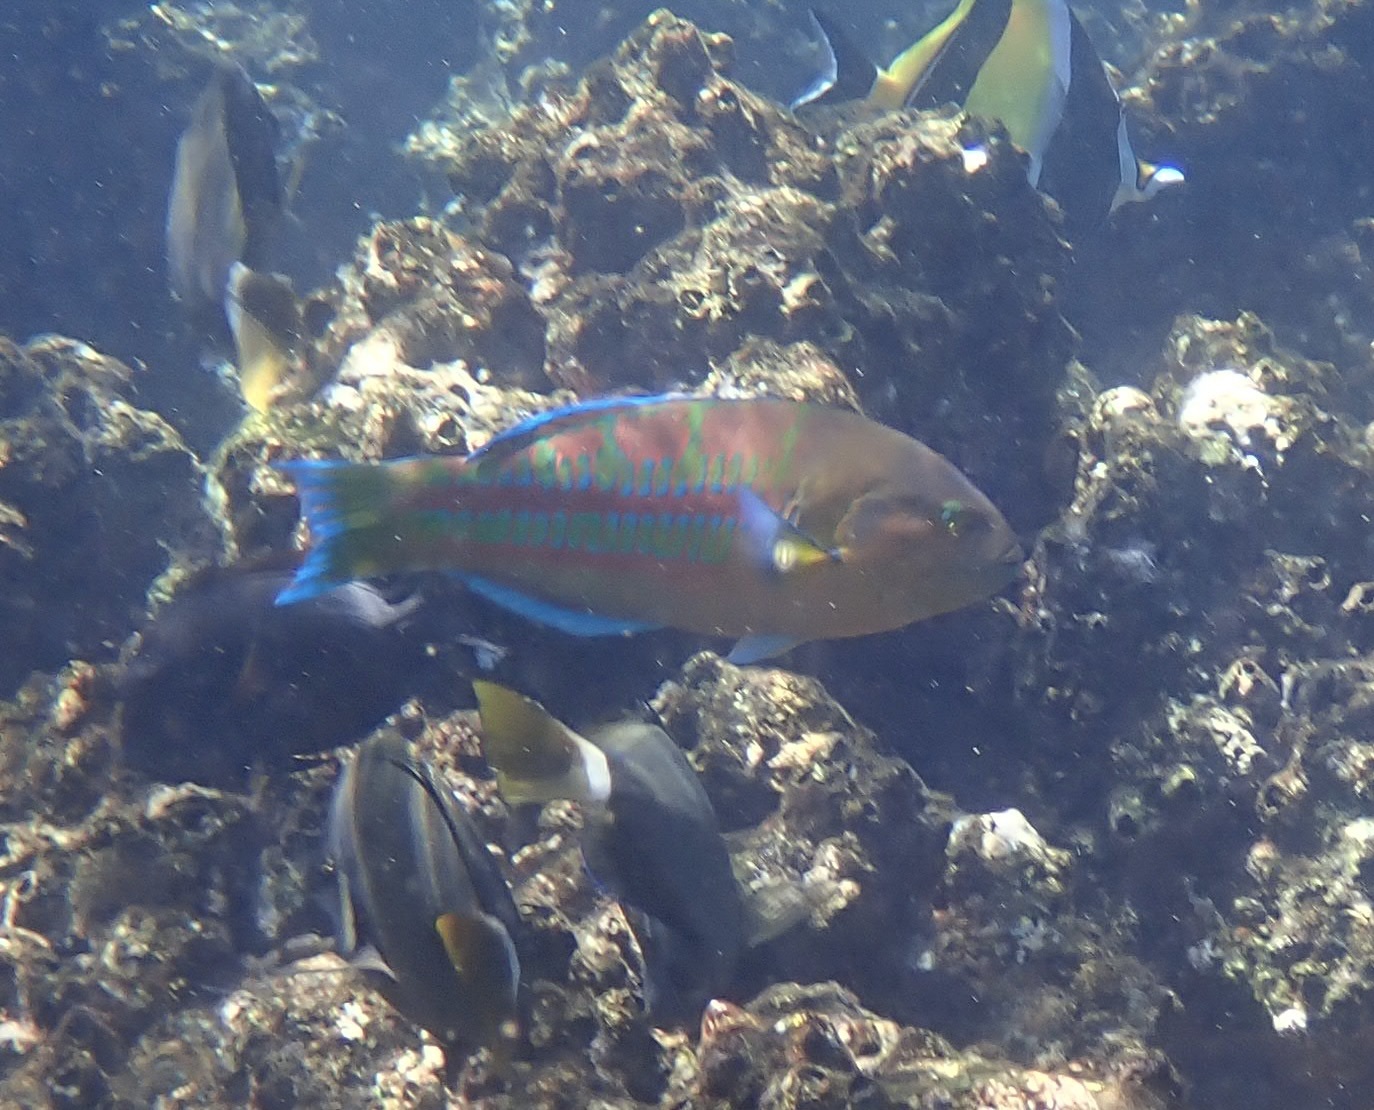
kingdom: Animalia
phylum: Chordata
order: Perciformes
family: Labridae
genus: Thalassoma
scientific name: Thalassoma trilobatum
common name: Christmas wrasse
